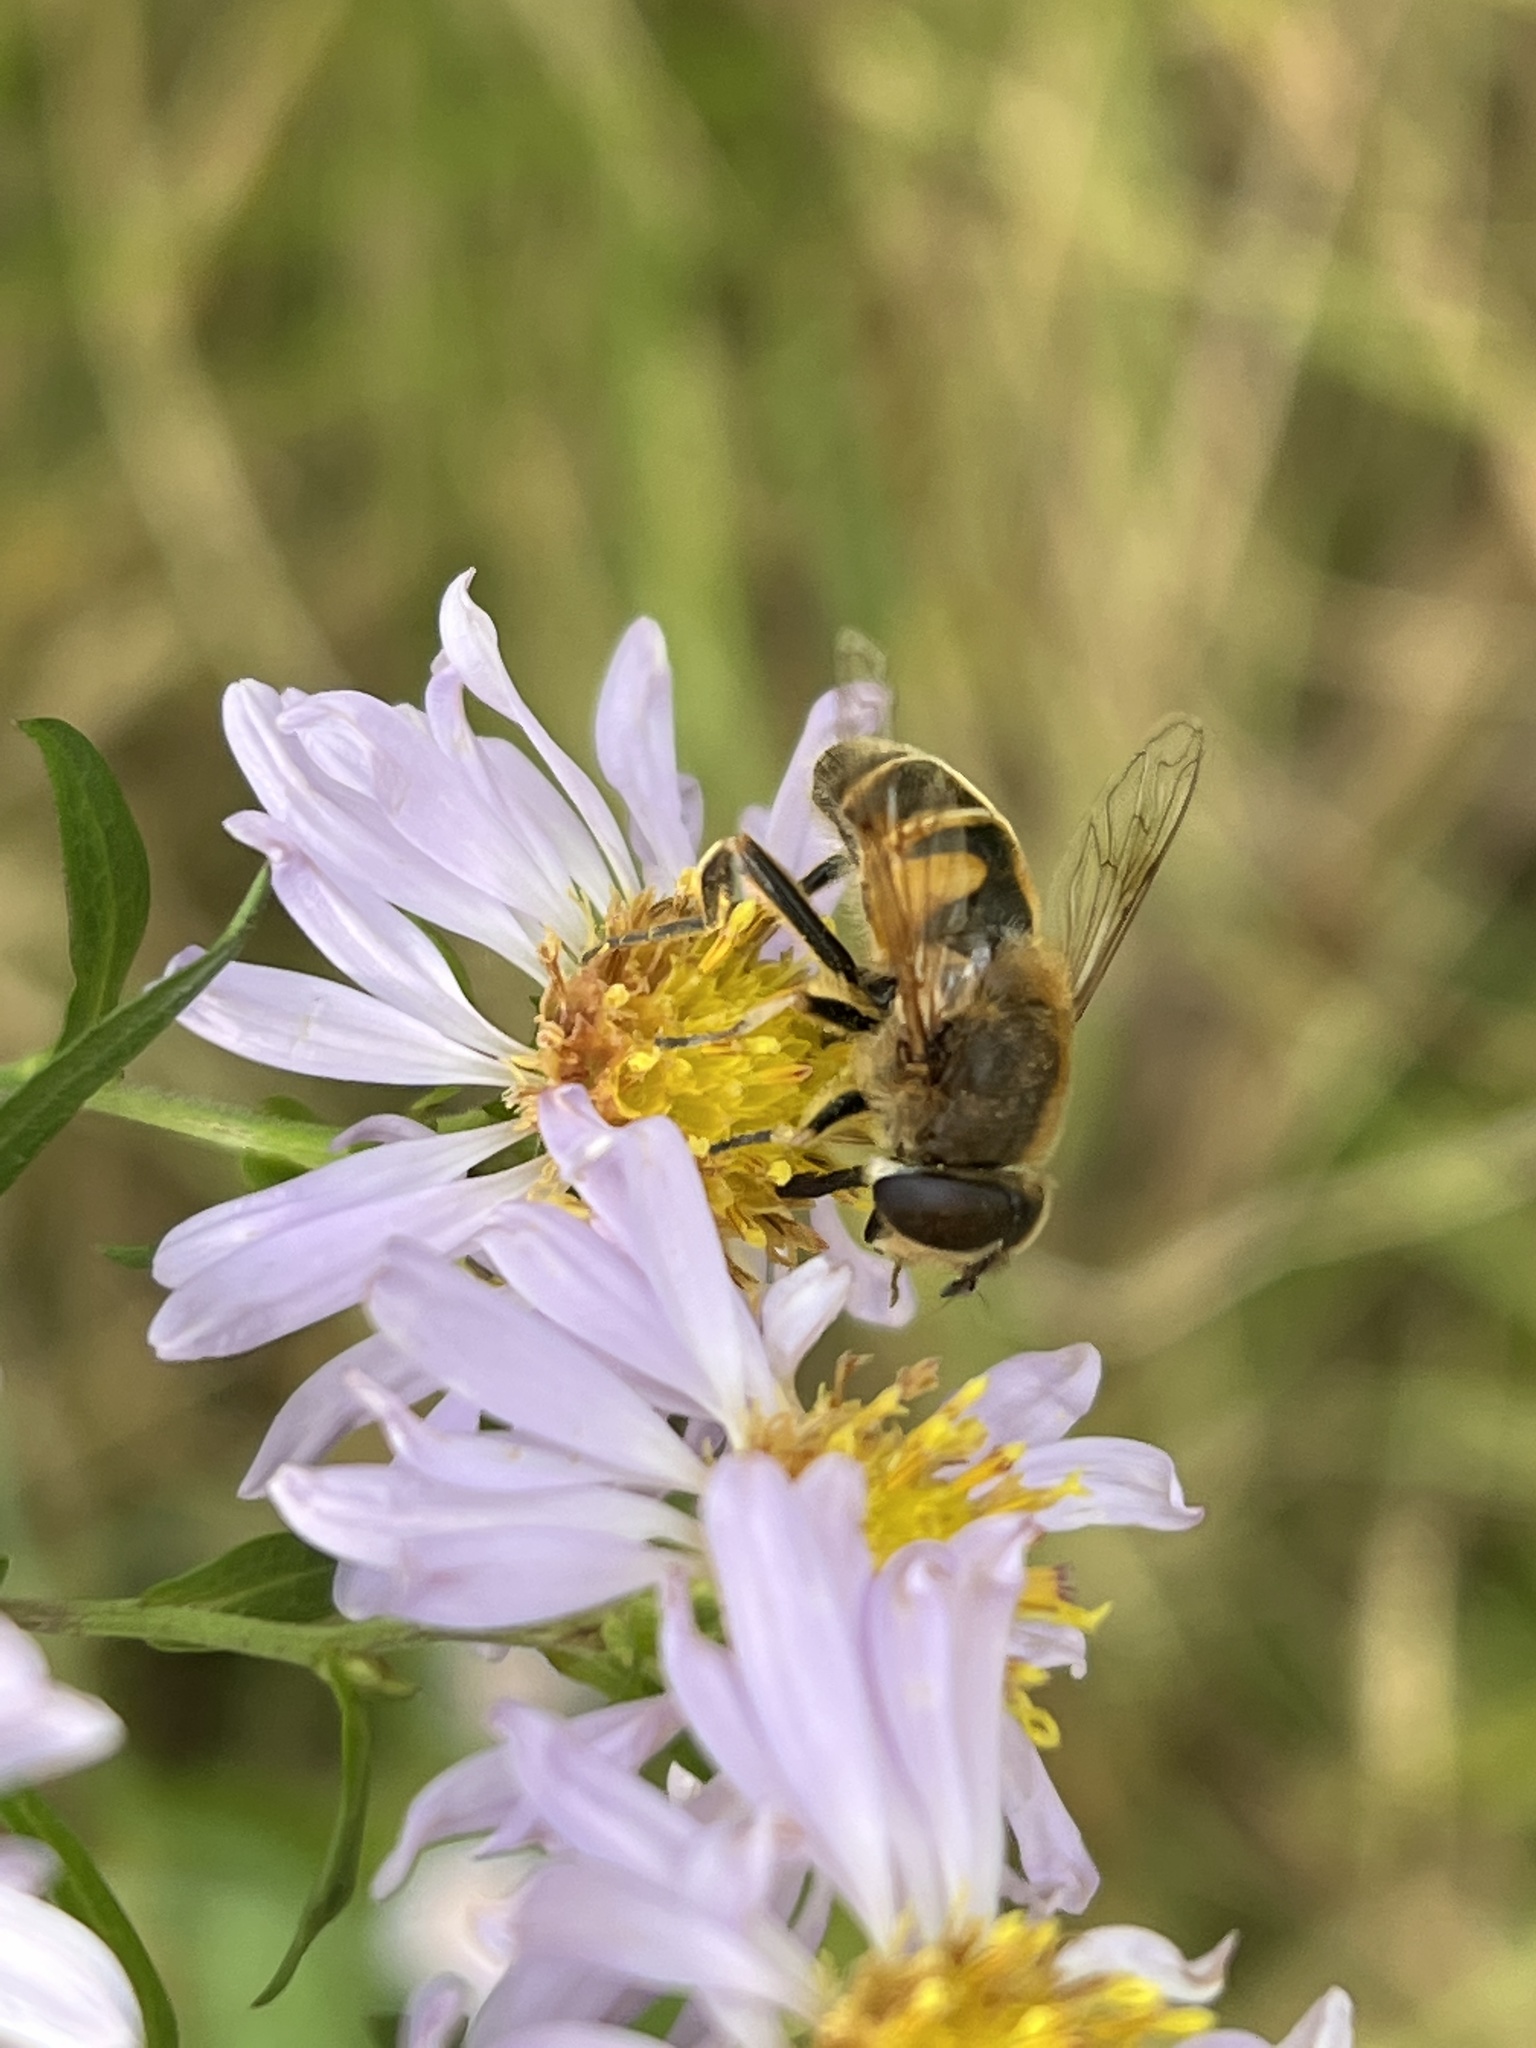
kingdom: Animalia
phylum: Arthropoda
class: Insecta
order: Diptera
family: Syrphidae
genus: Eristalis
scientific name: Eristalis tenax
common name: Drone fly
